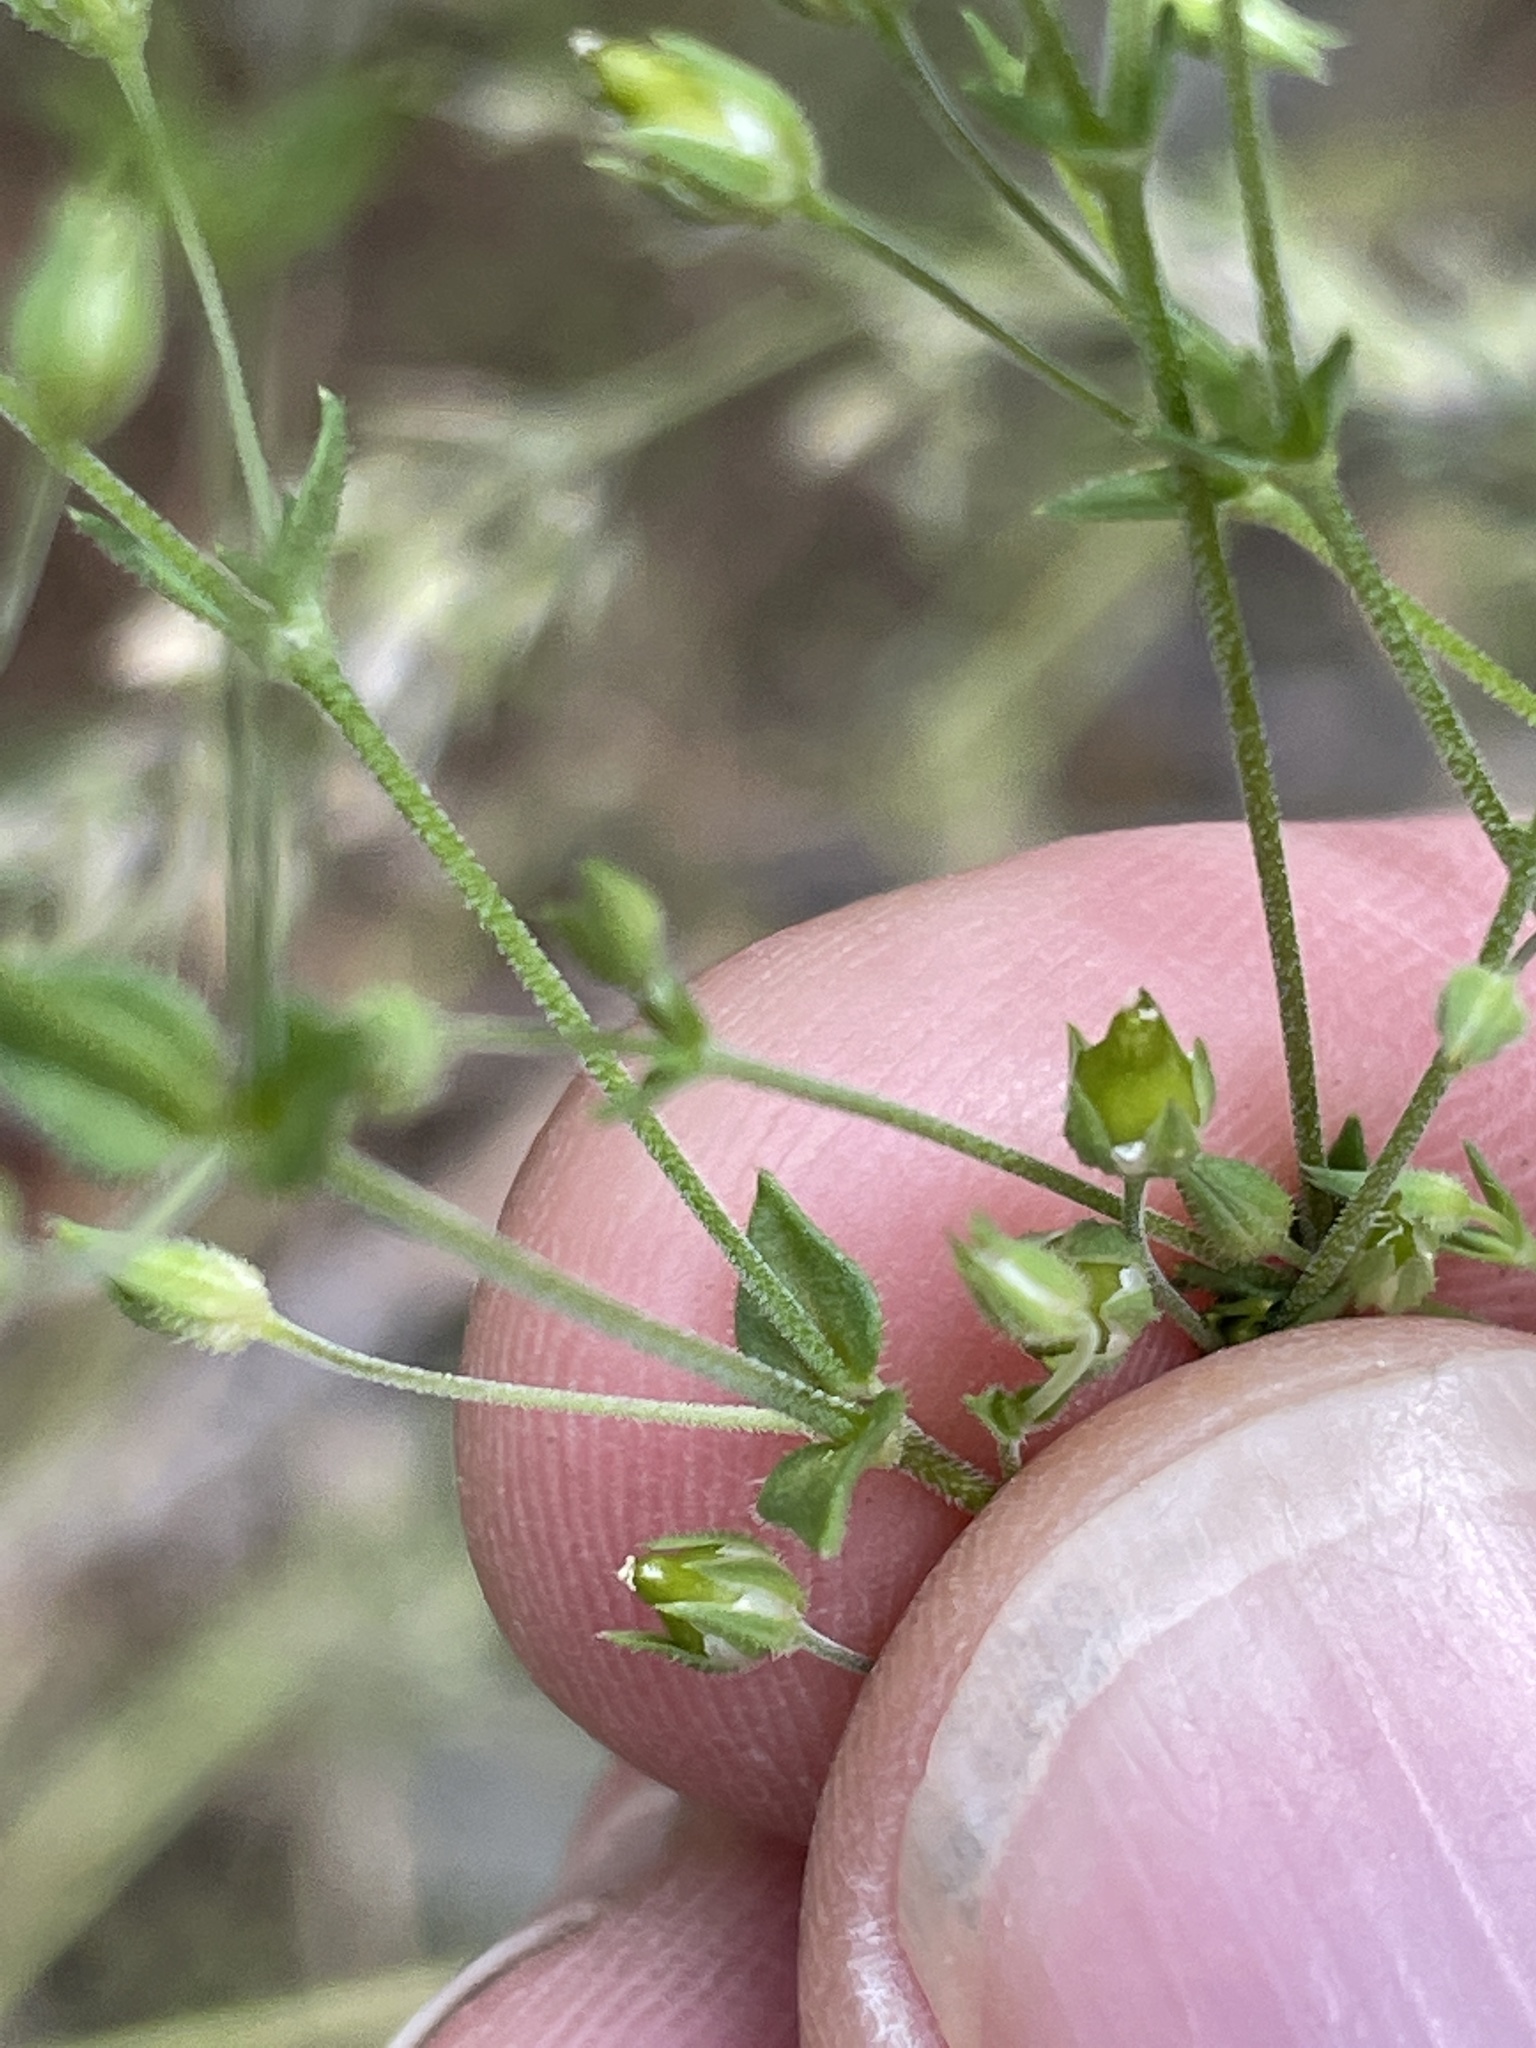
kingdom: Plantae
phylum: Tracheophyta
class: Magnoliopsida
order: Caryophyllales
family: Caryophyllaceae
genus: Arenaria
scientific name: Arenaria serpyllifolia
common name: Thyme-leaved sandwort
